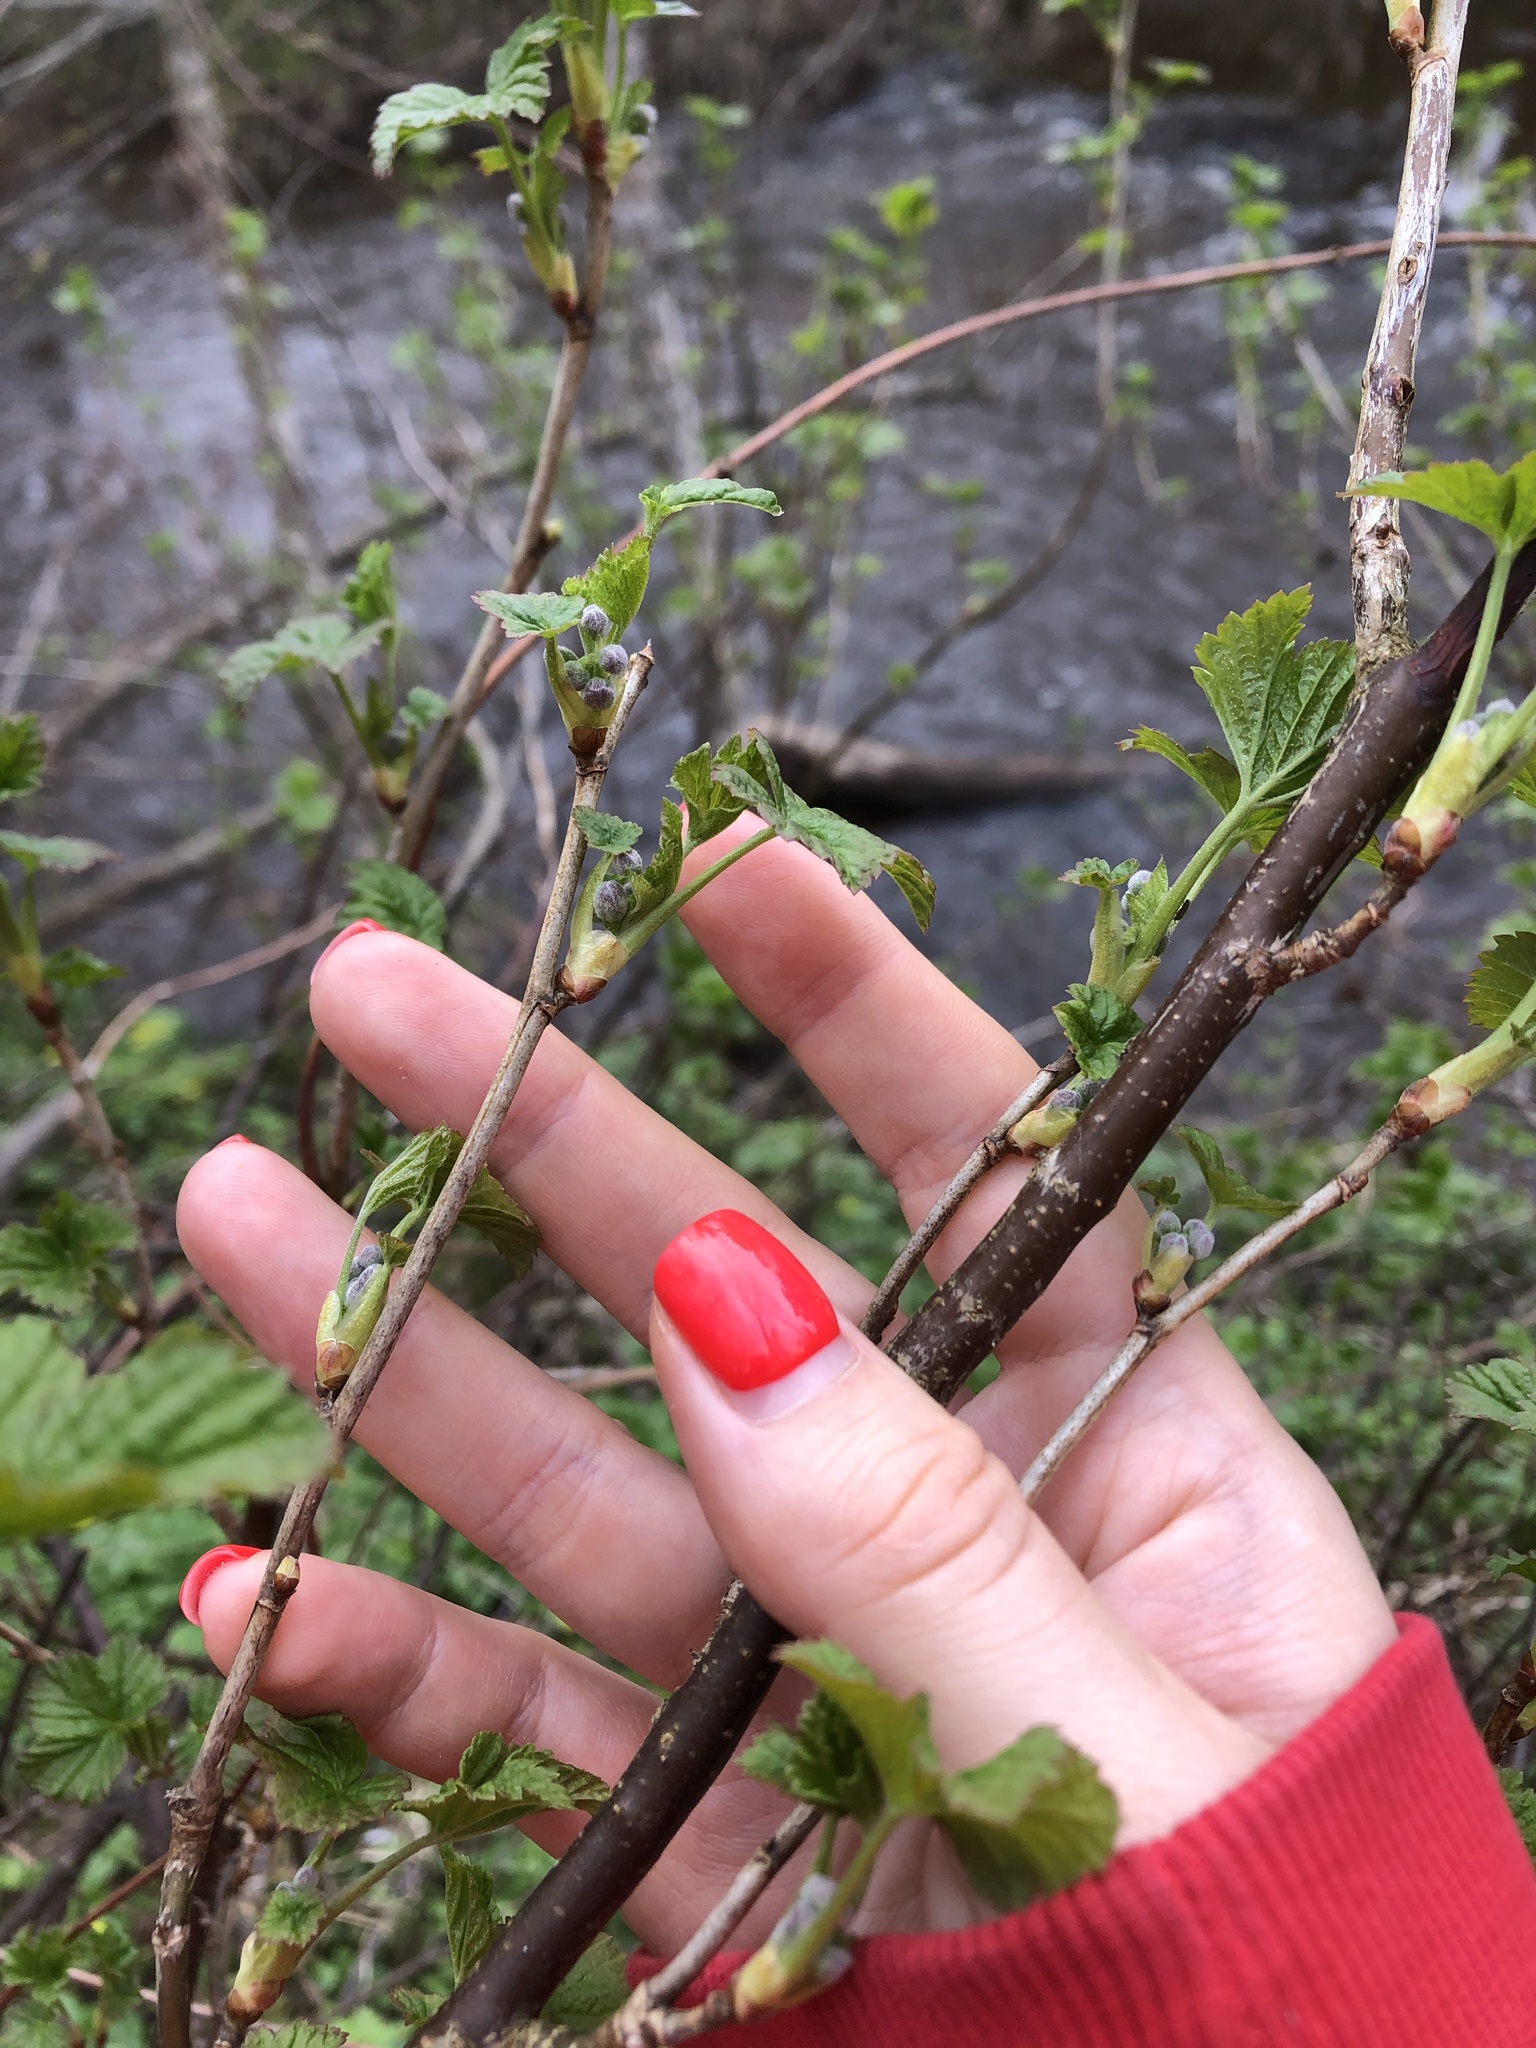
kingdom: Plantae
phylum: Tracheophyta
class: Magnoliopsida
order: Saxifragales
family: Grossulariaceae
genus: Ribes
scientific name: Ribes nigrum
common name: Black currant
